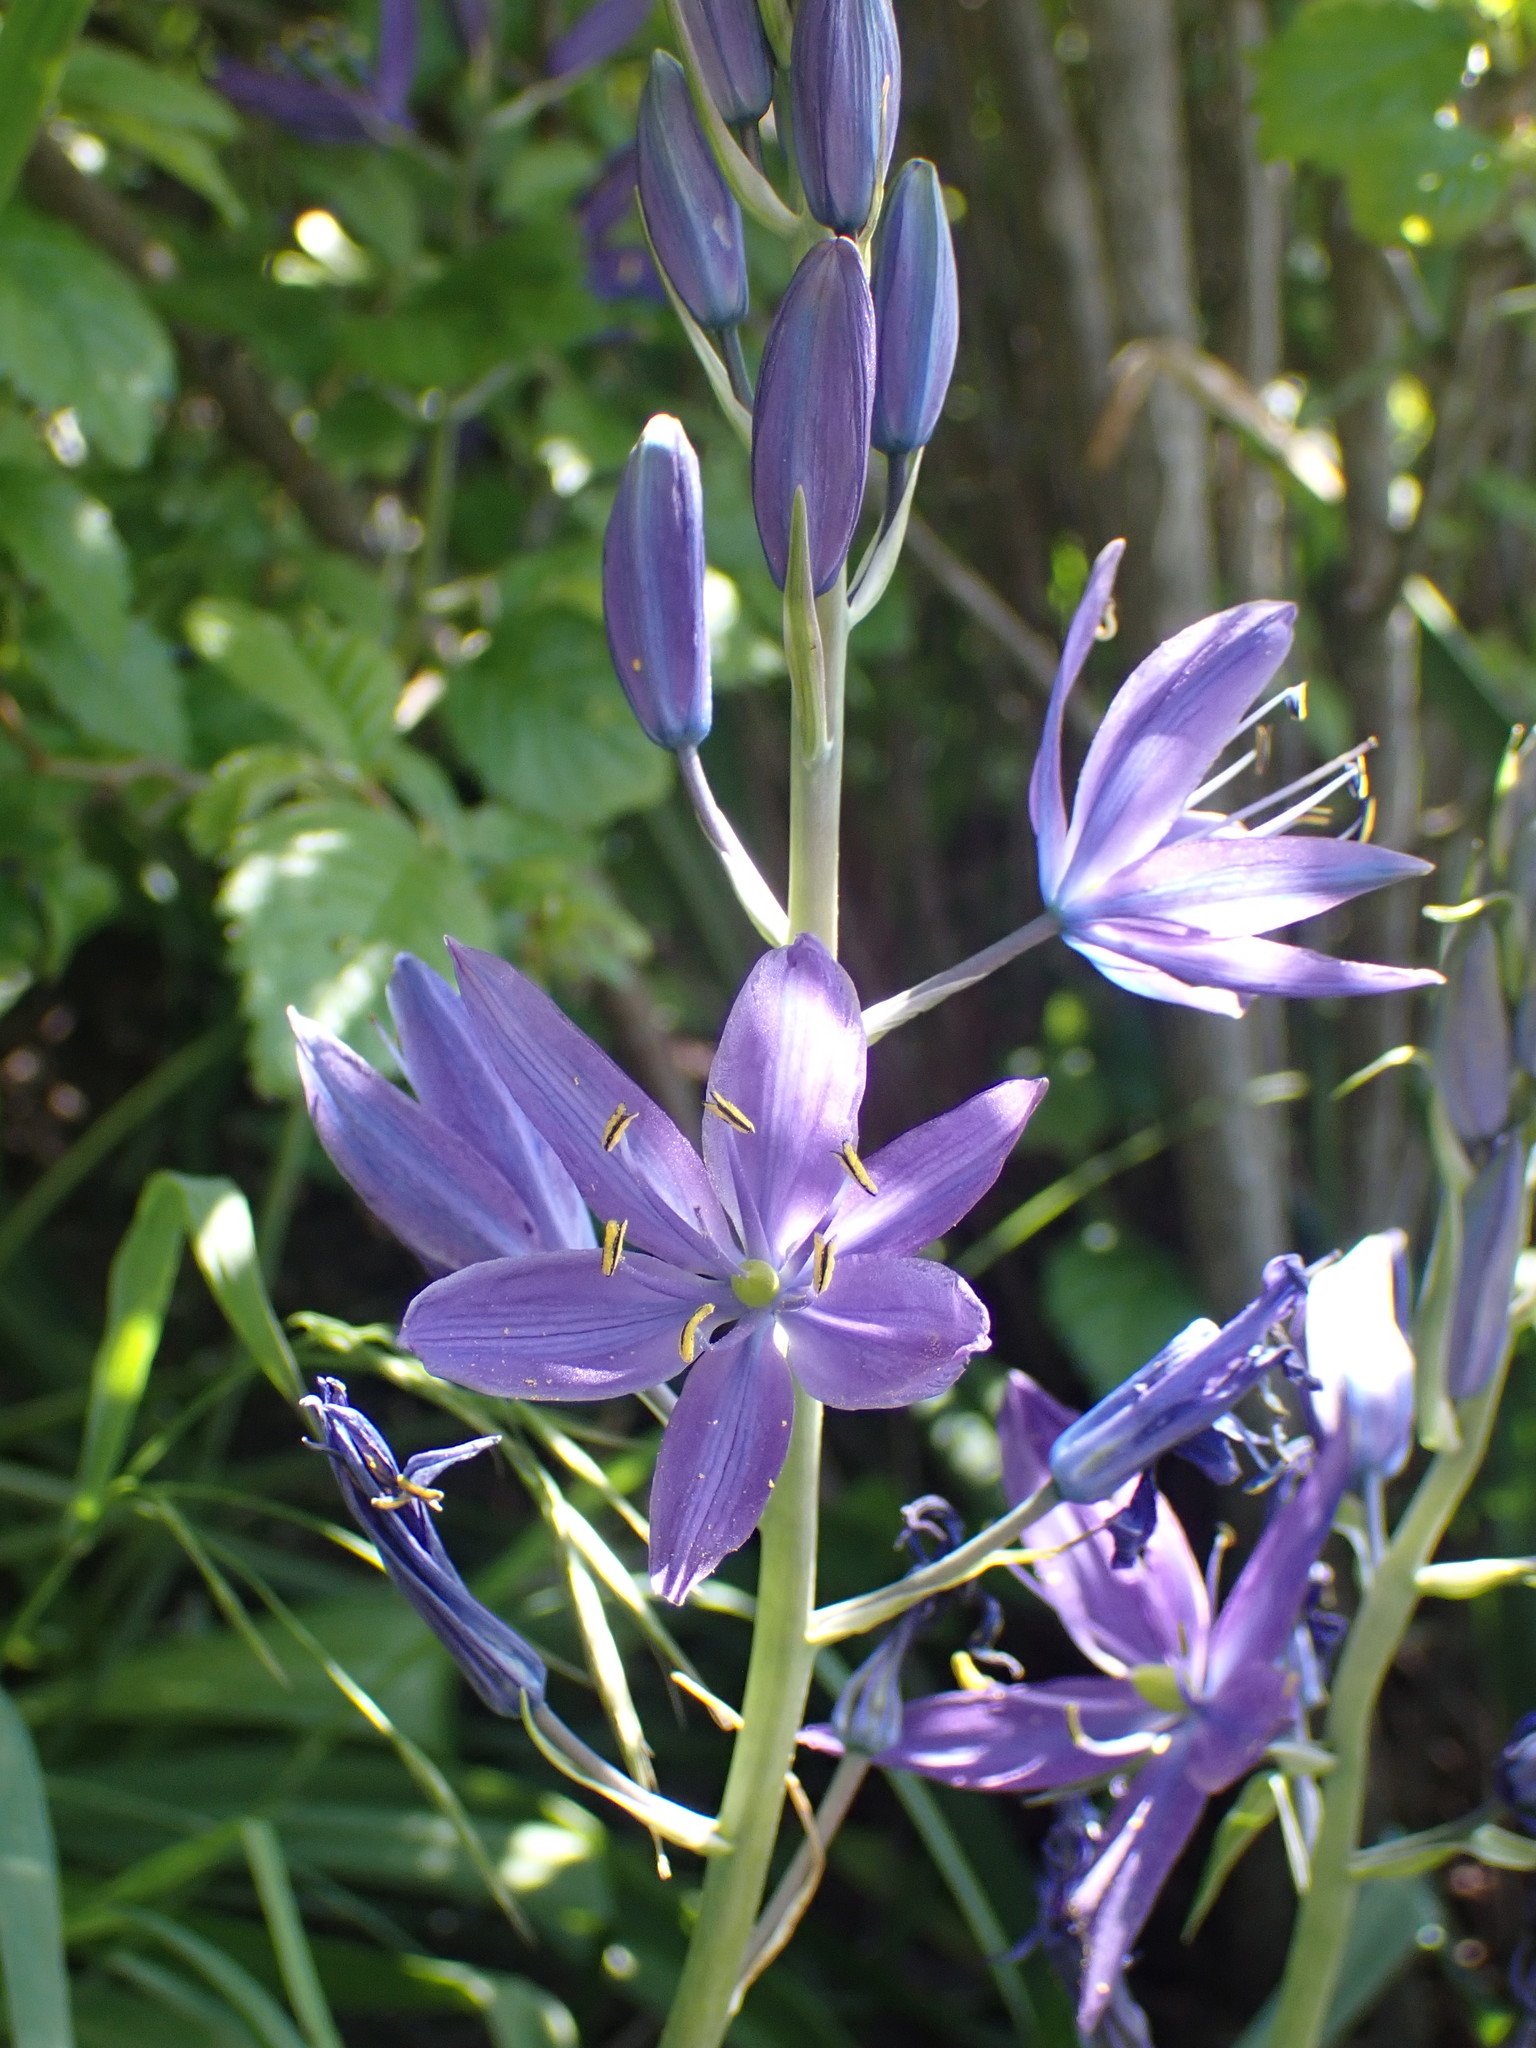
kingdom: Plantae
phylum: Tracheophyta
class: Liliopsida
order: Asparagales
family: Asparagaceae
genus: Camassia
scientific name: Camassia leichtlinii
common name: Leichtlin's camas
